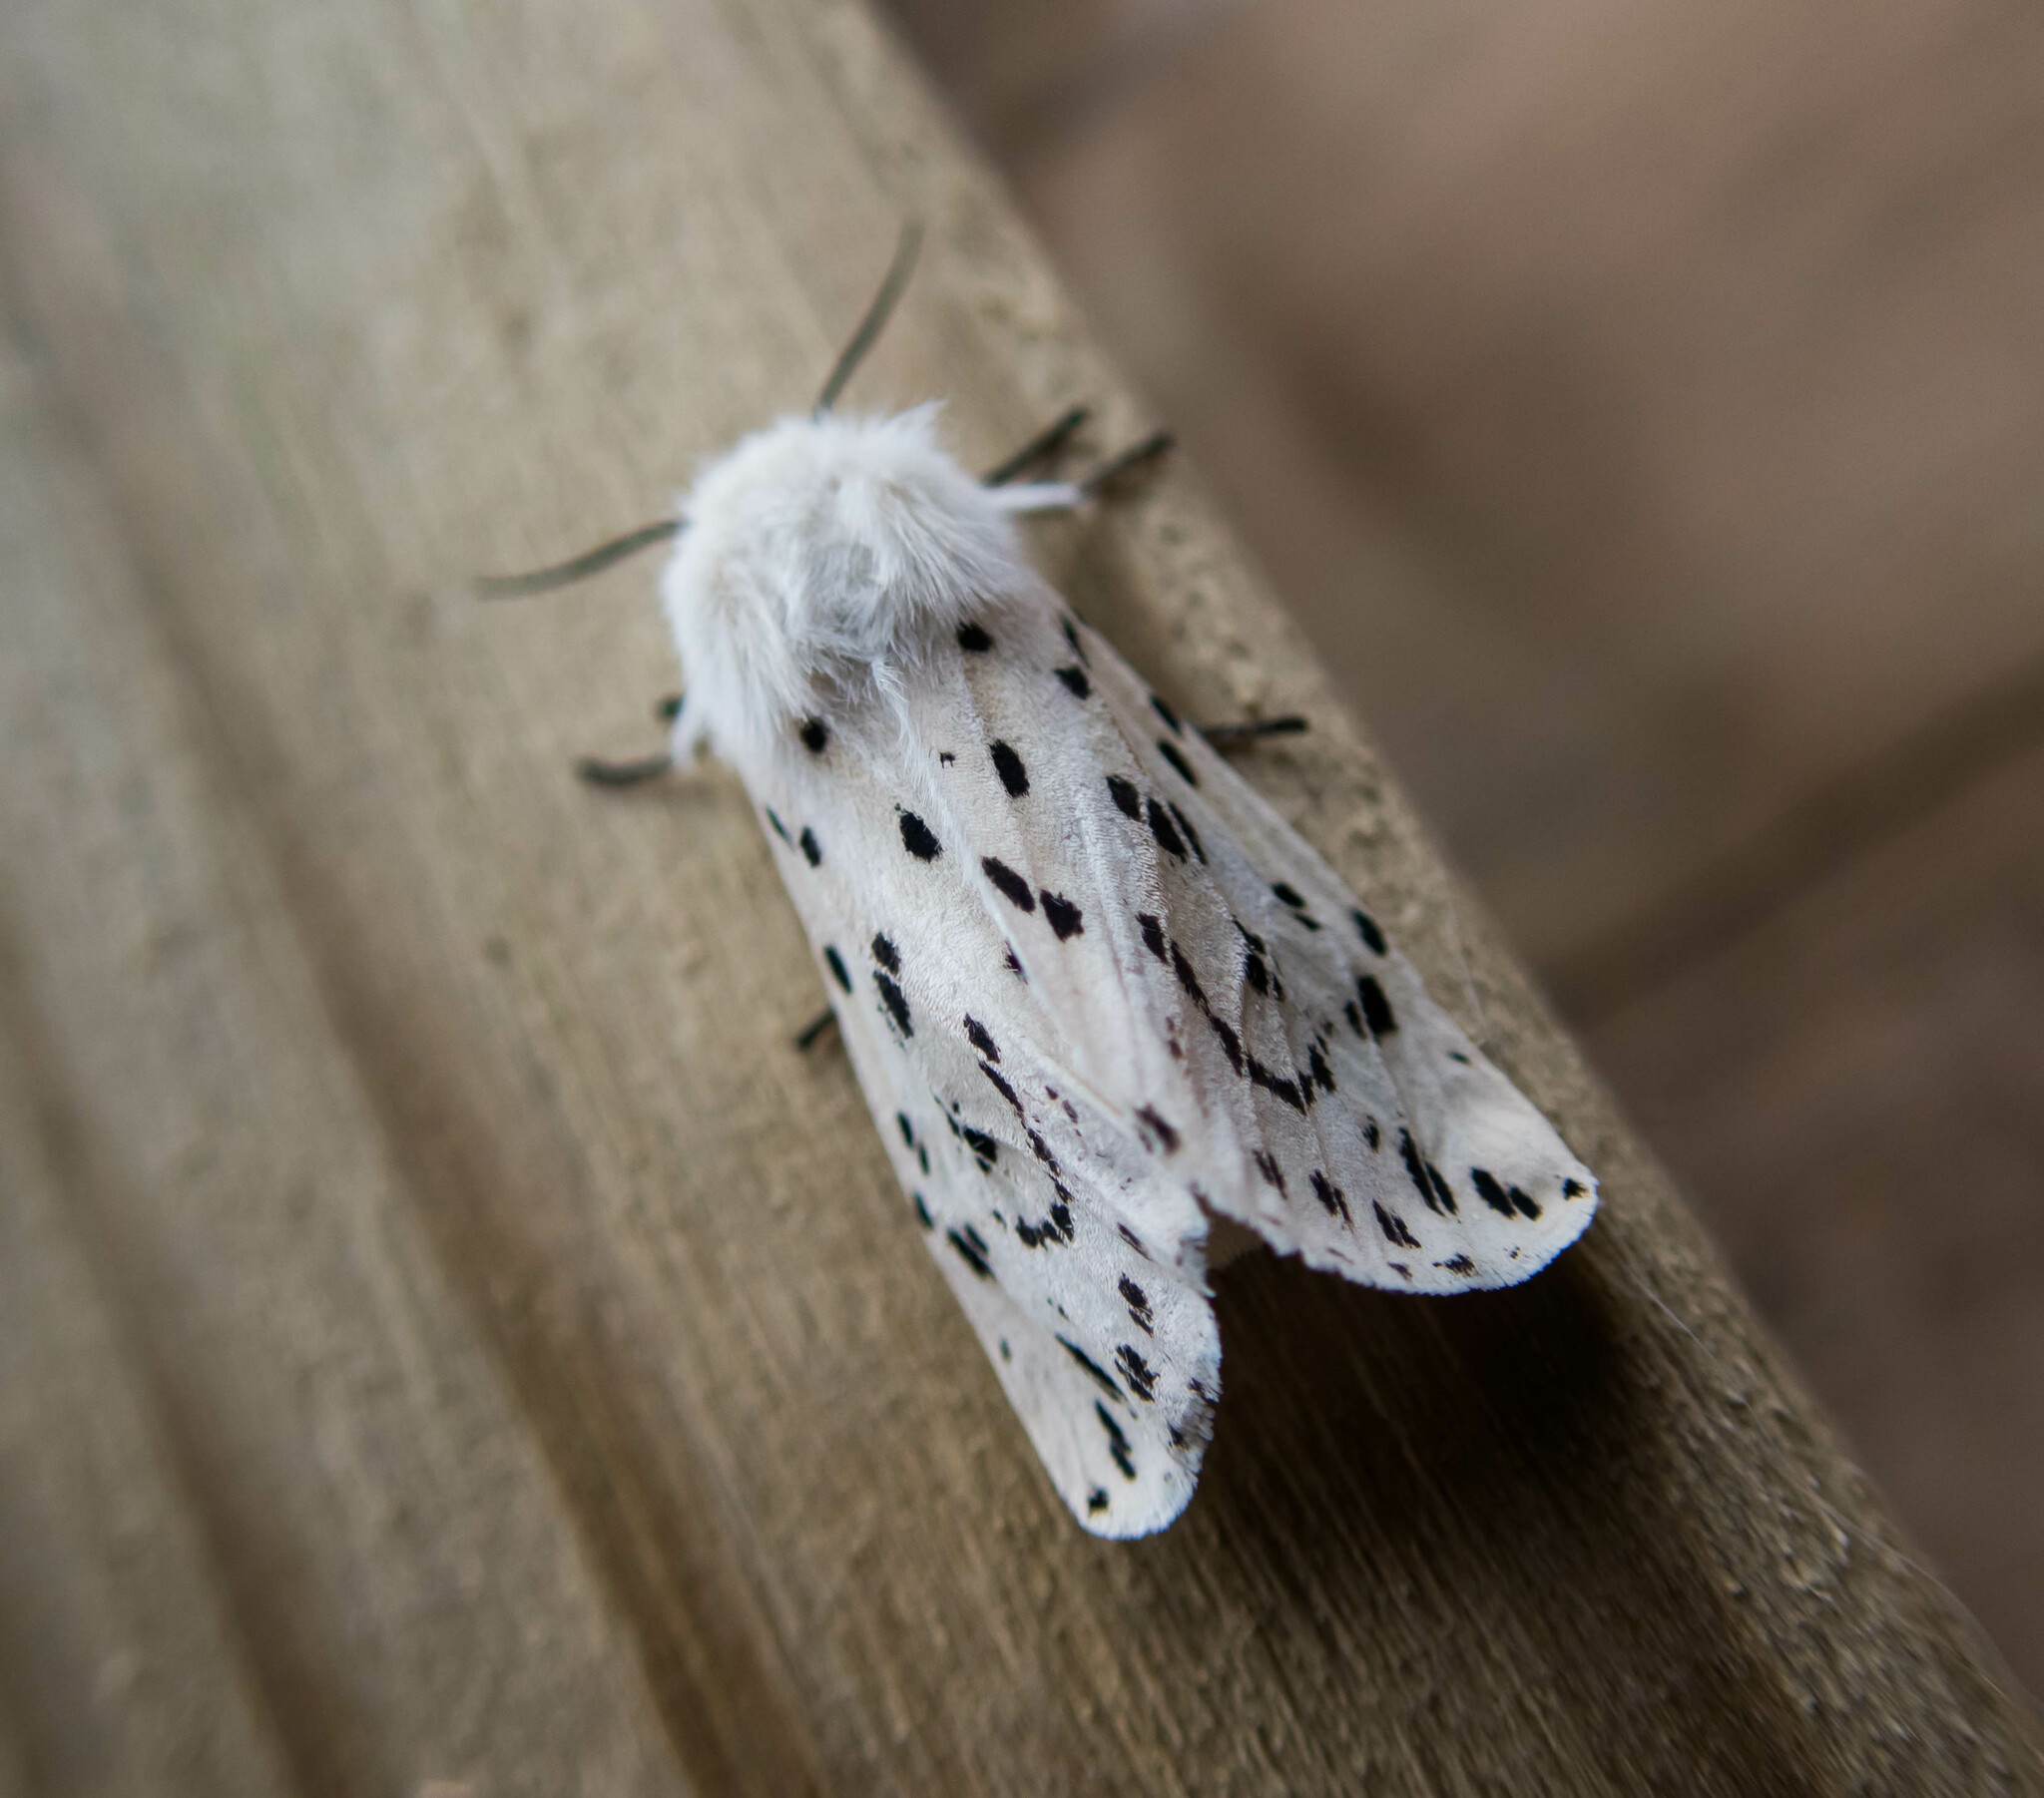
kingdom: Animalia
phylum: Arthropoda
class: Insecta
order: Lepidoptera
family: Erebidae
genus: Spilosoma
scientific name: Spilosoma lubricipeda
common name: White ermine
